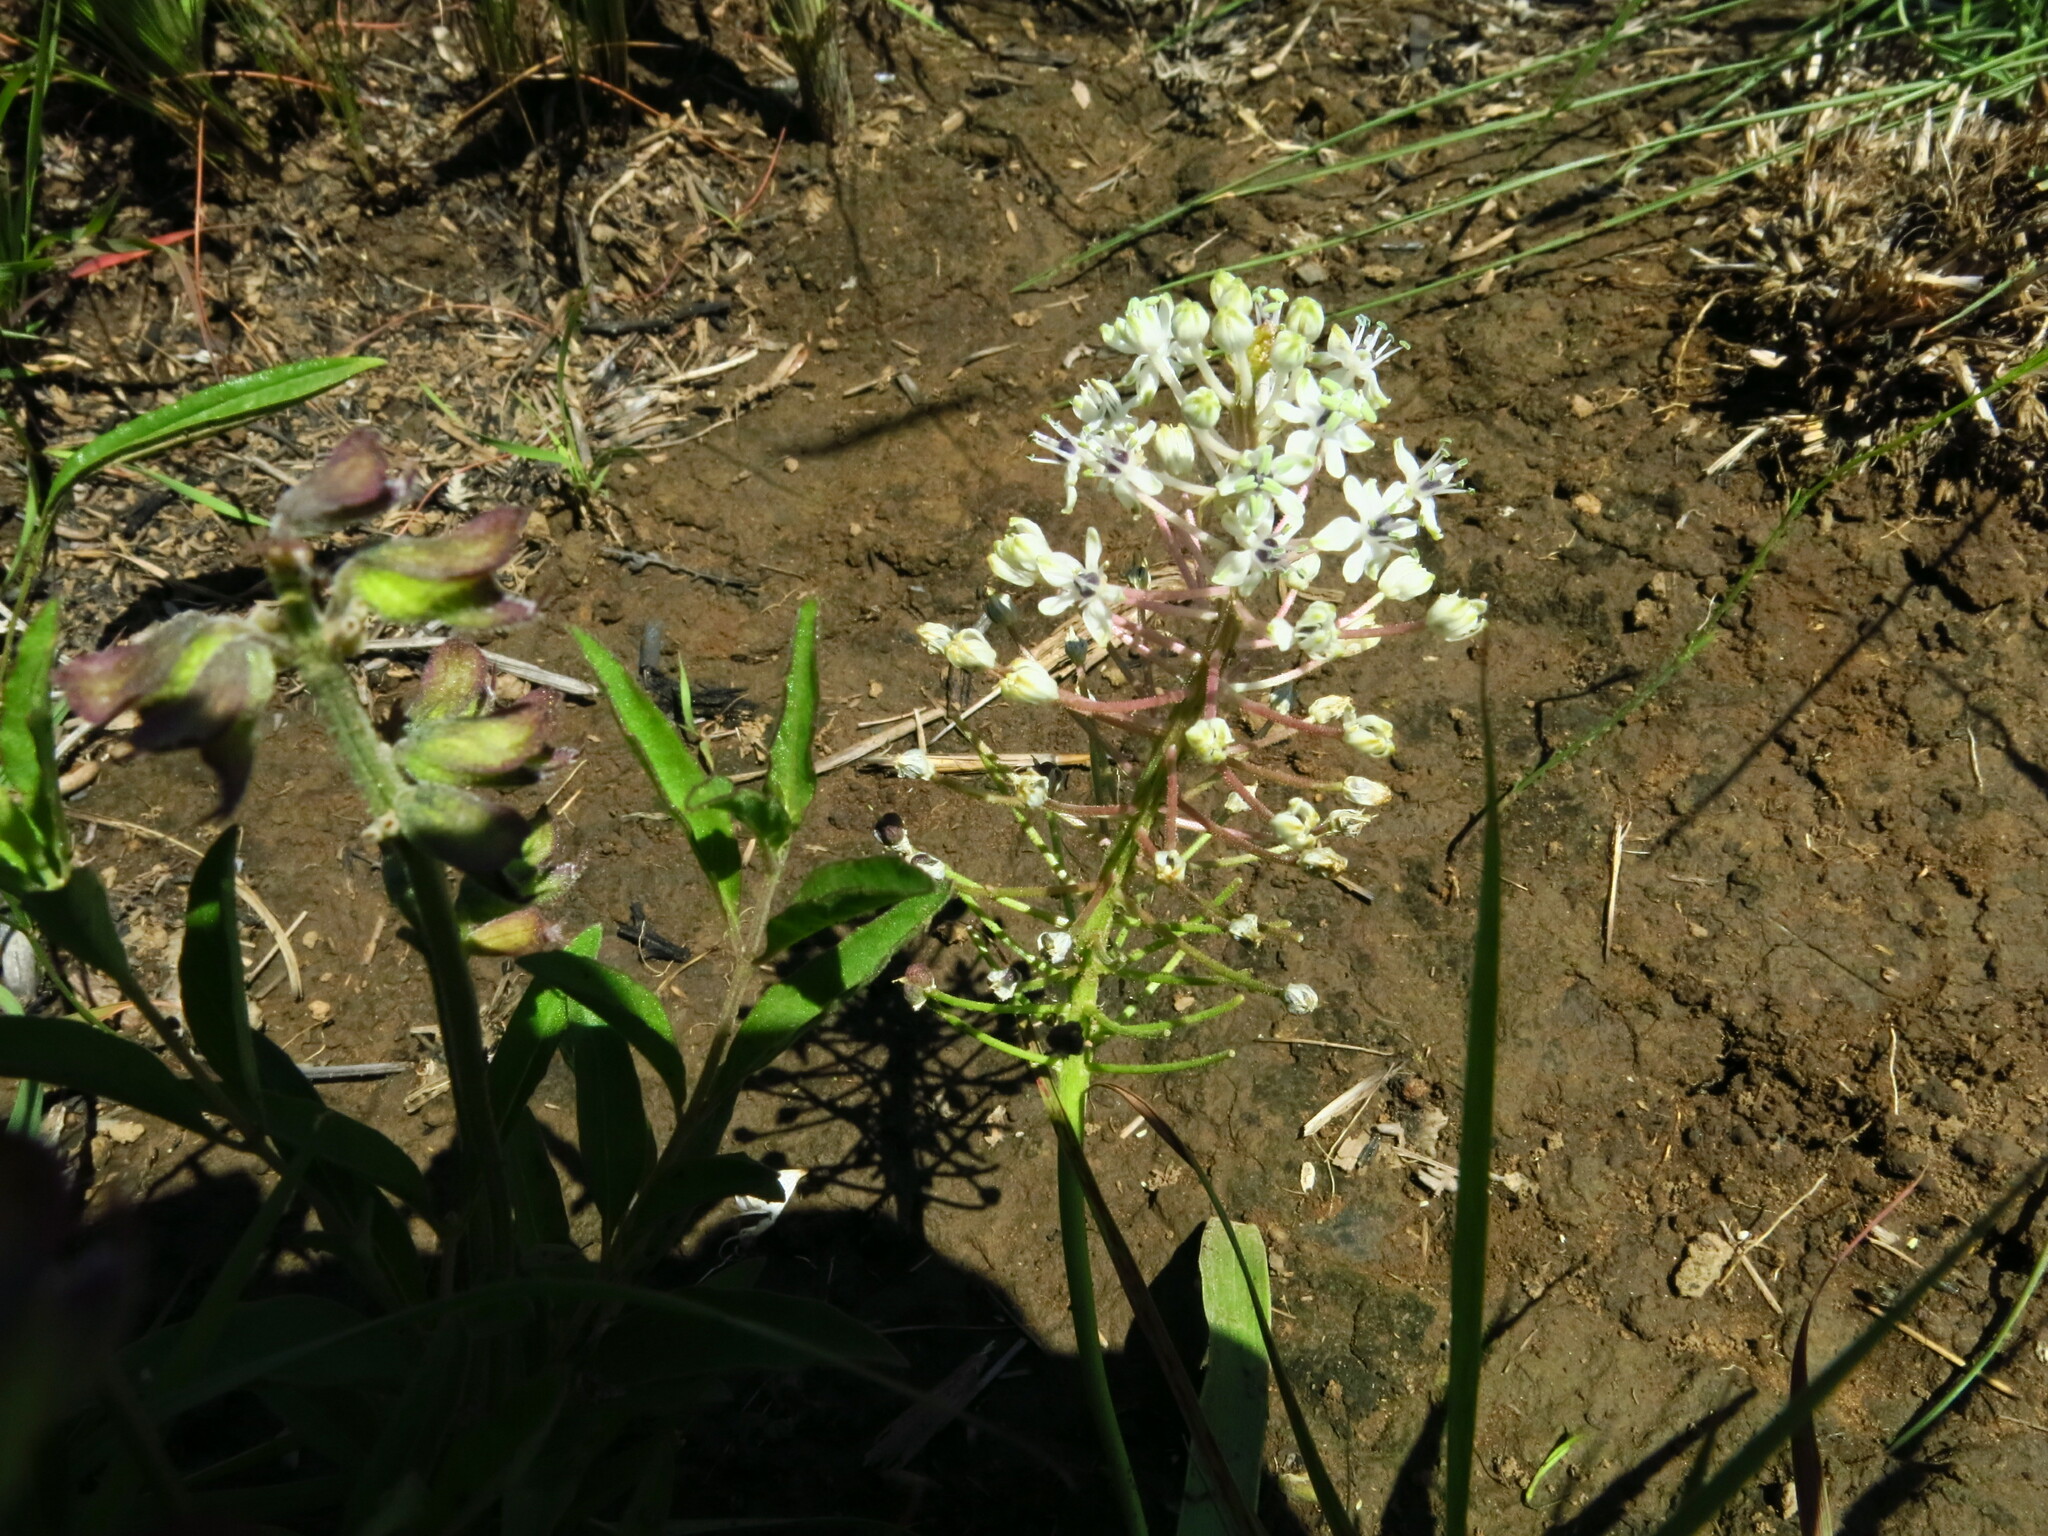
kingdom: Plantae
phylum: Tracheophyta
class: Liliopsida
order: Asparagales
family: Asparagaceae
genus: Schizocarphus
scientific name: Schizocarphus nervosus
